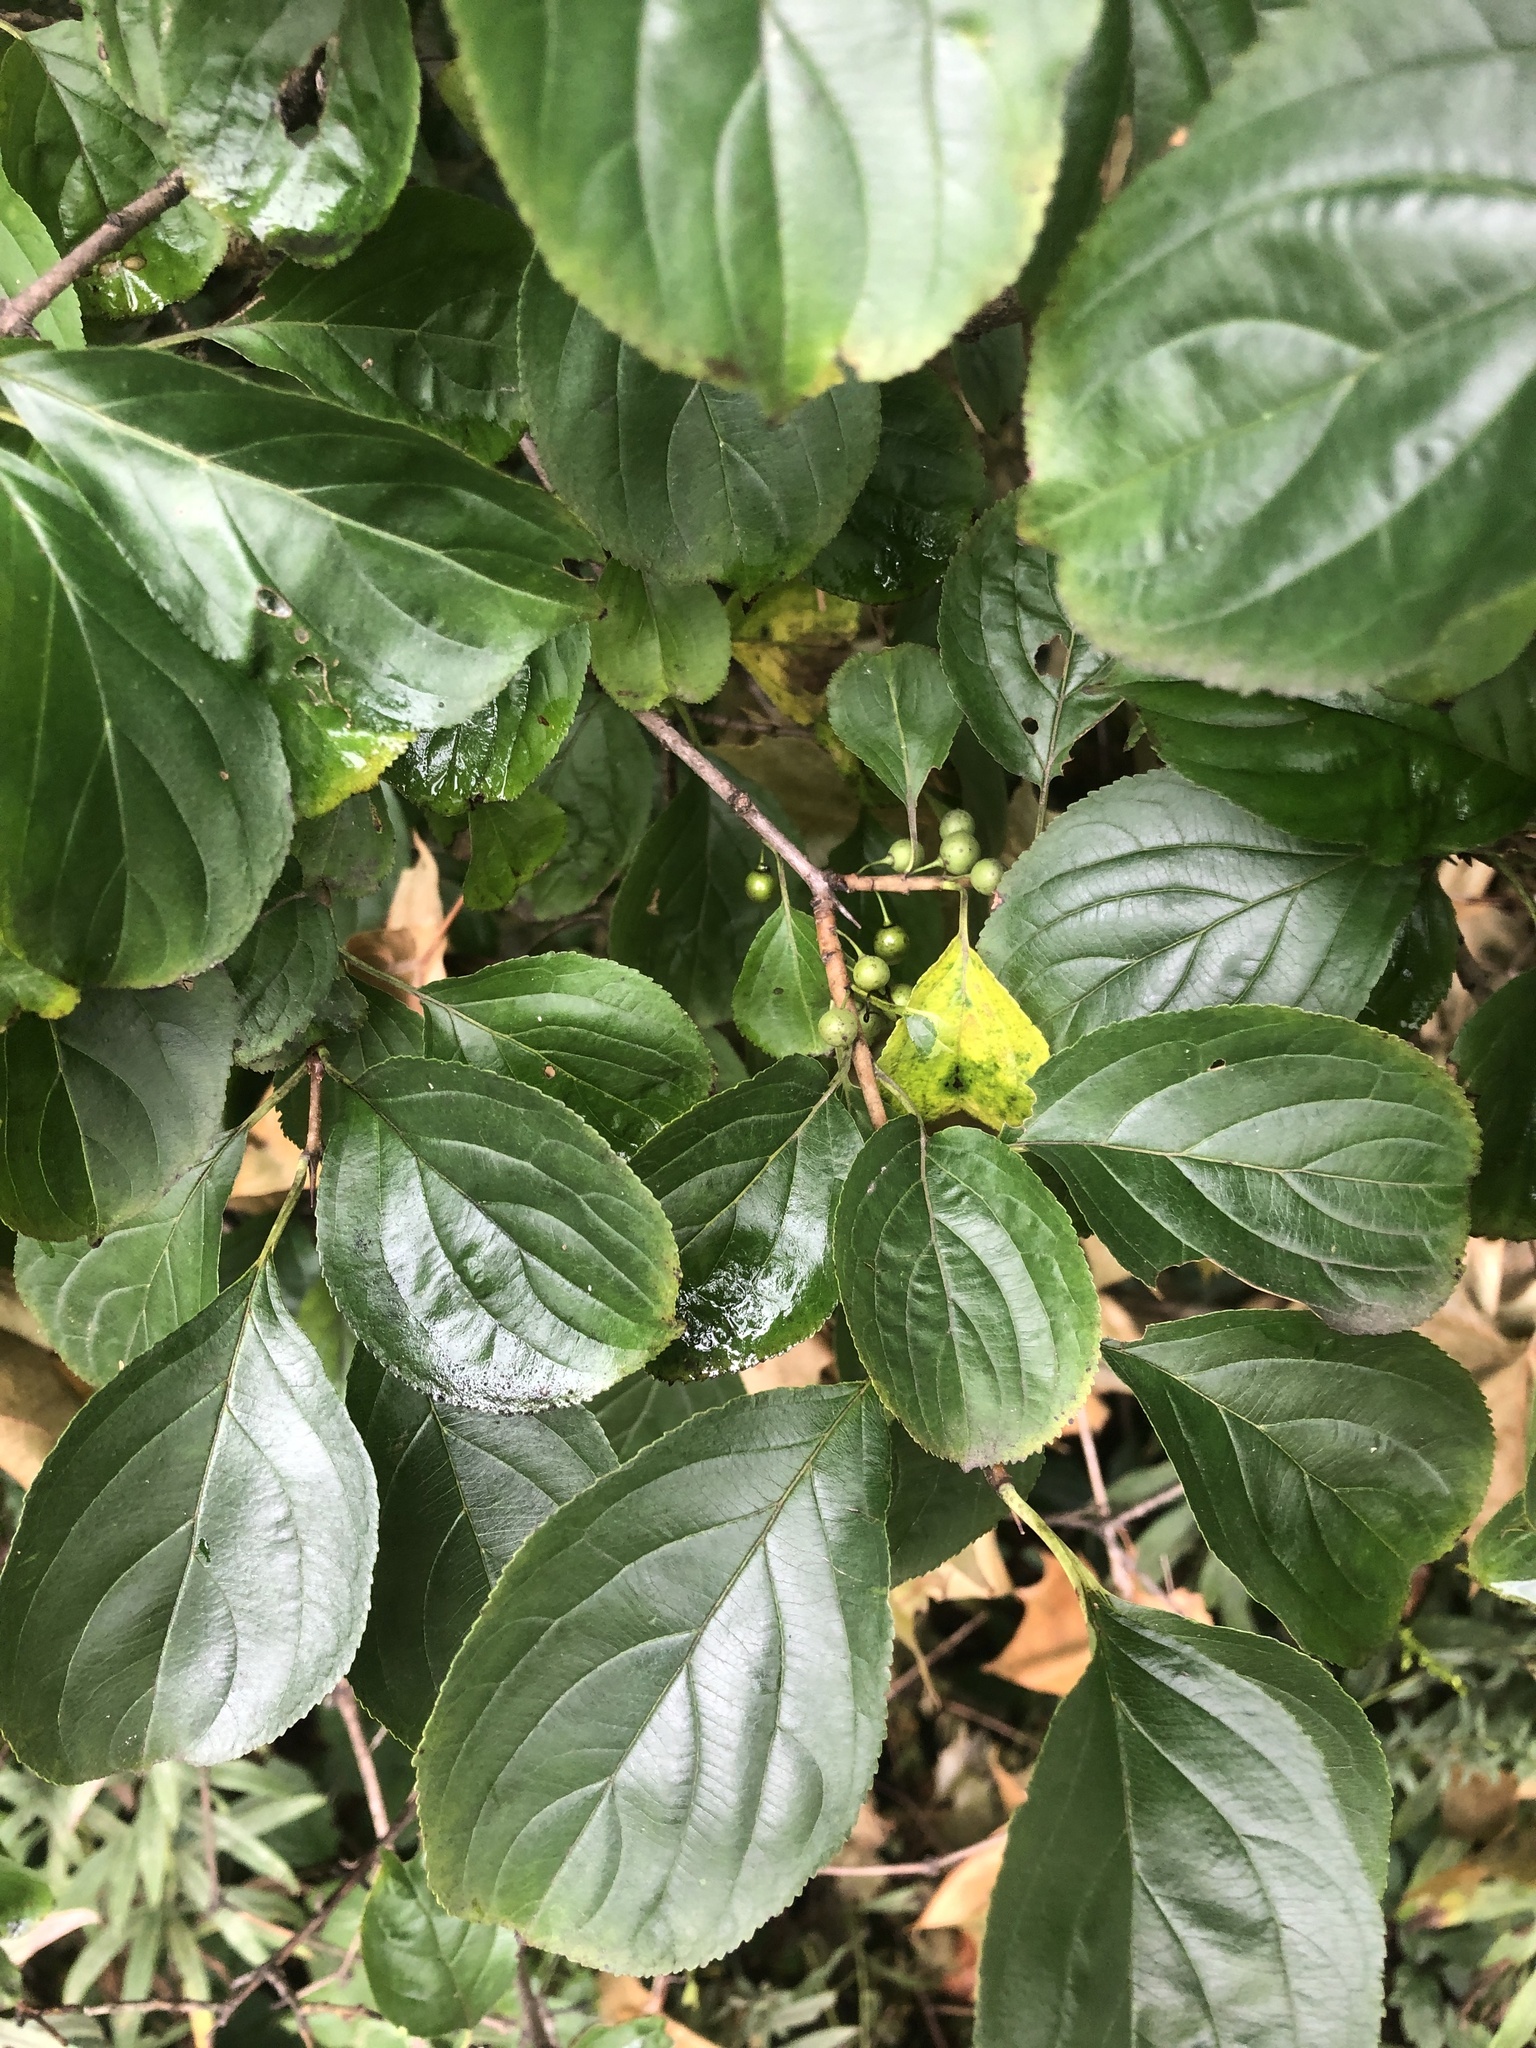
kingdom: Plantae
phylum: Tracheophyta
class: Magnoliopsida
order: Rosales
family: Rhamnaceae
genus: Rhamnus
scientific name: Rhamnus cathartica
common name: Common buckthorn
